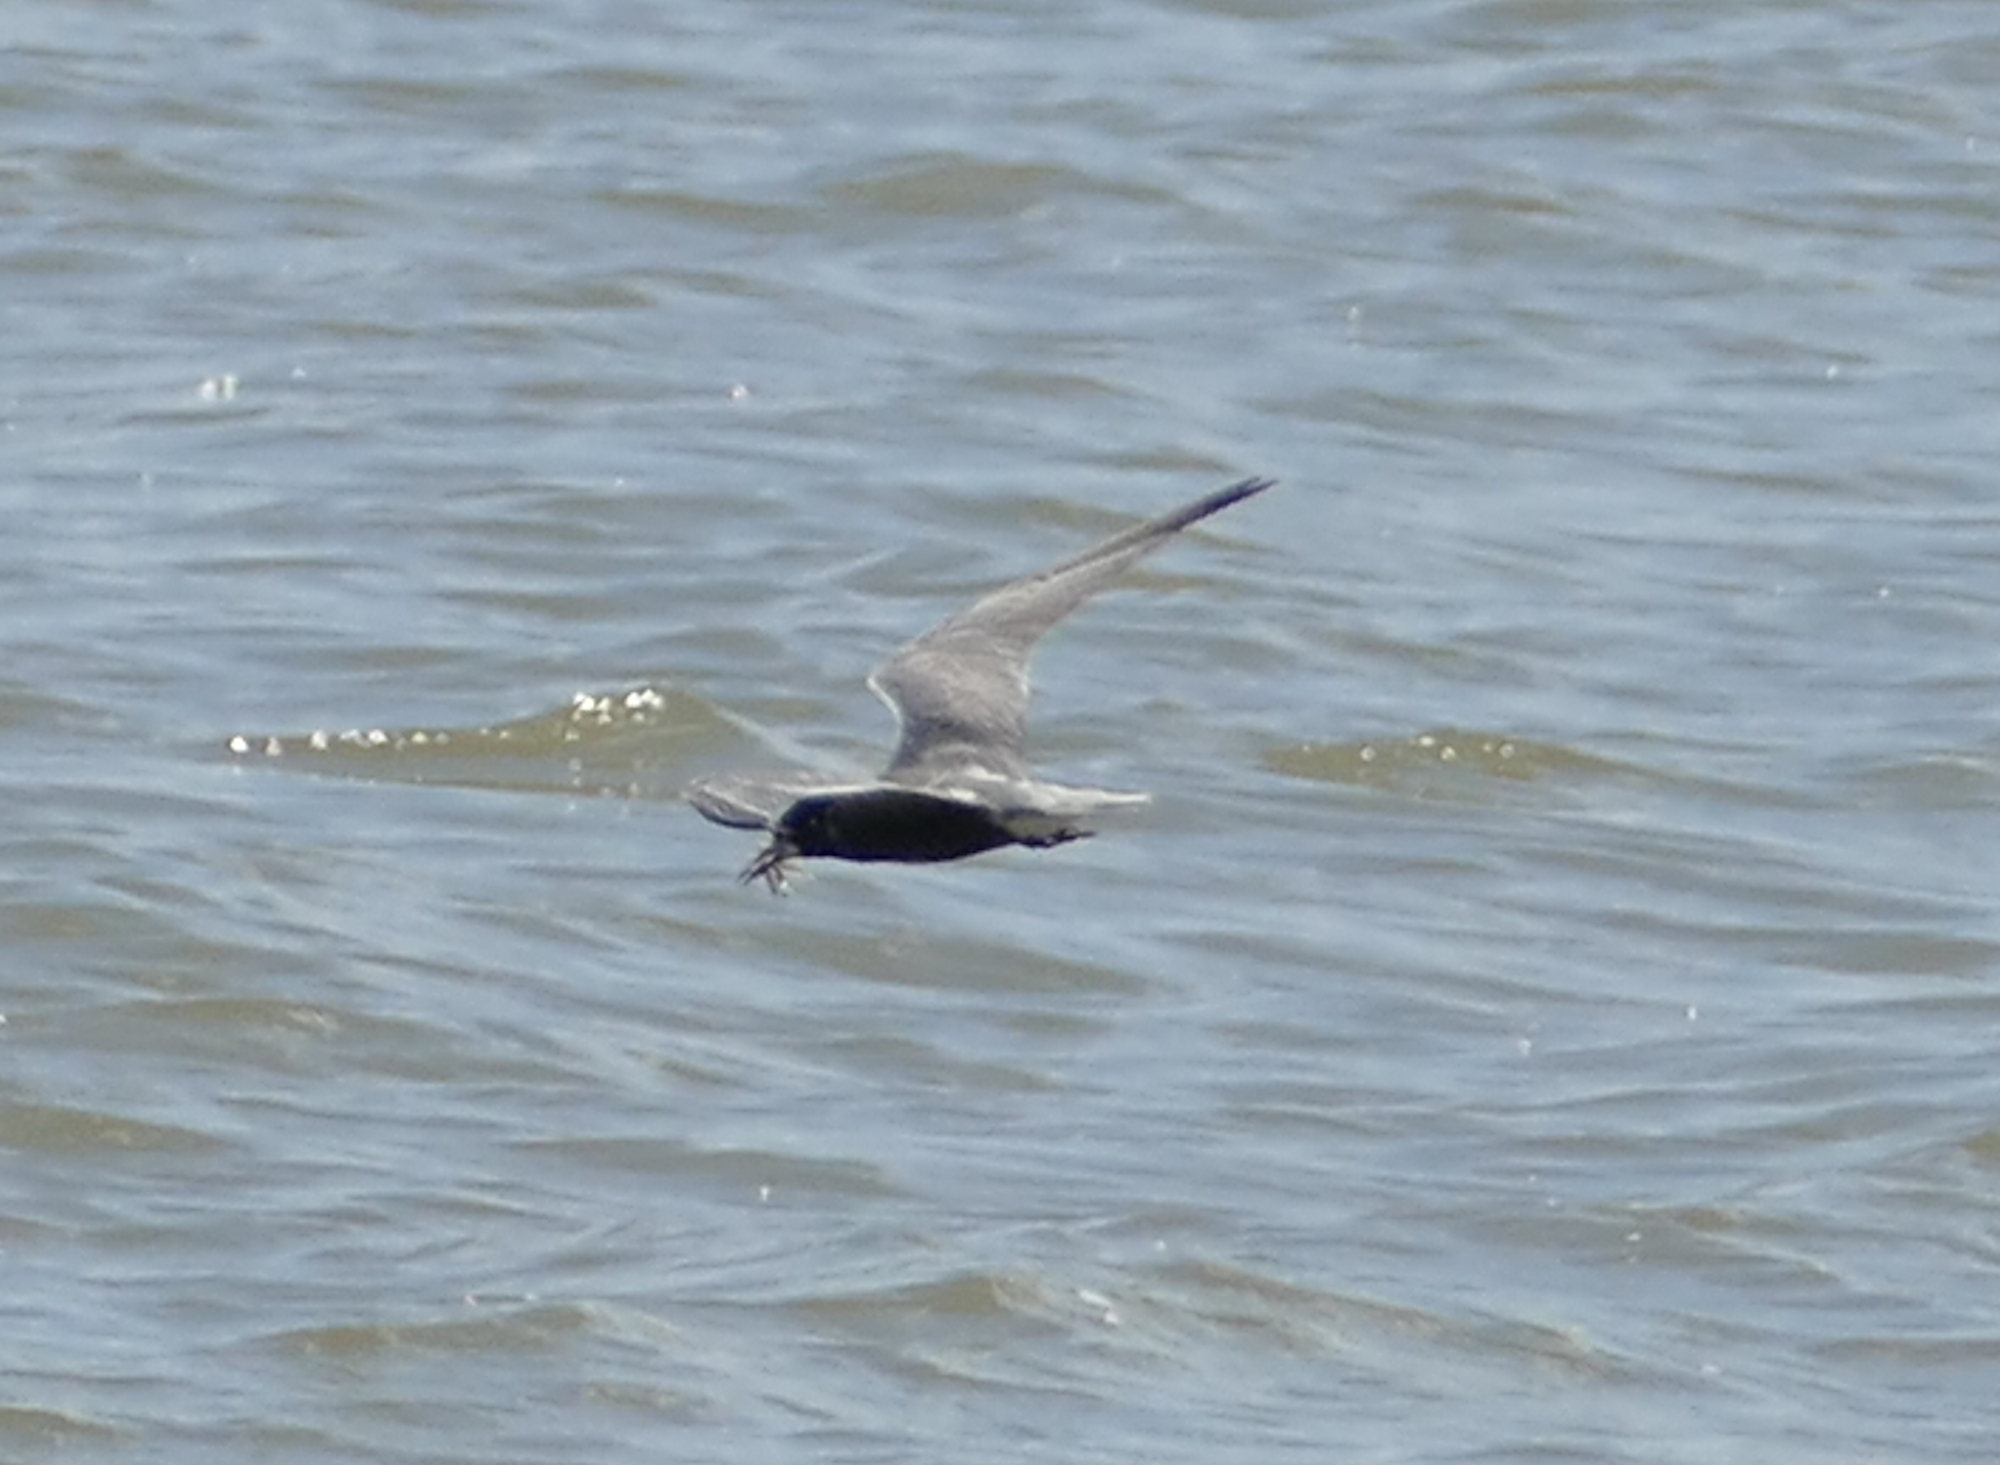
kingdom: Animalia
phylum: Chordata
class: Aves
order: Charadriiformes
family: Laridae
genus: Chlidonias
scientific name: Chlidonias niger
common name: Black tern
